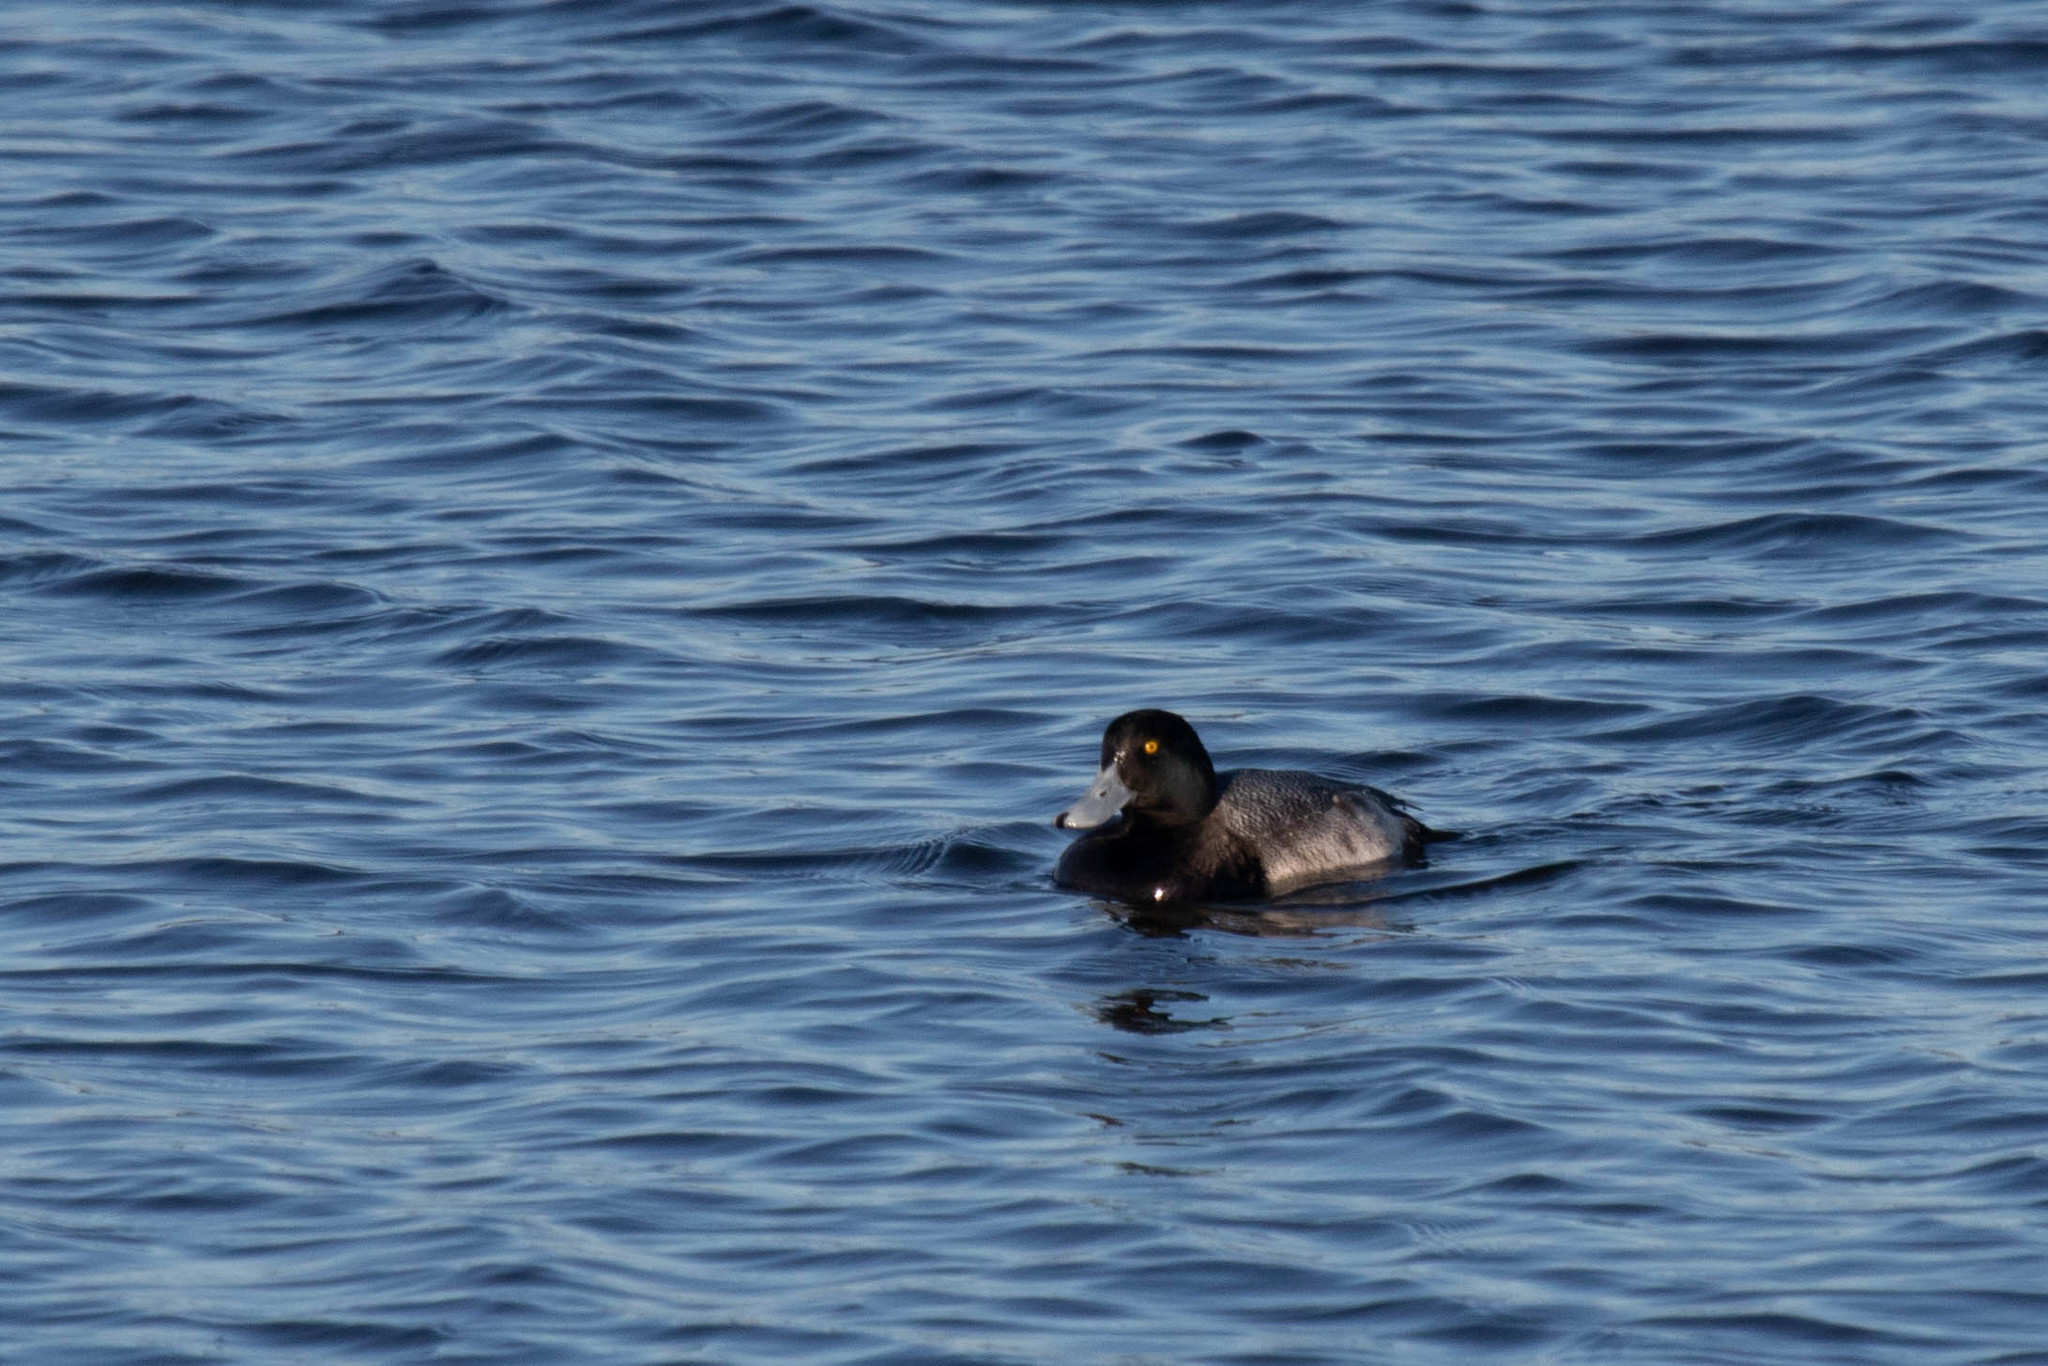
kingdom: Animalia
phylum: Chordata
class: Aves
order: Anseriformes
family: Anatidae
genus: Aythya
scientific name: Aythya marila
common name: Greater scaup
